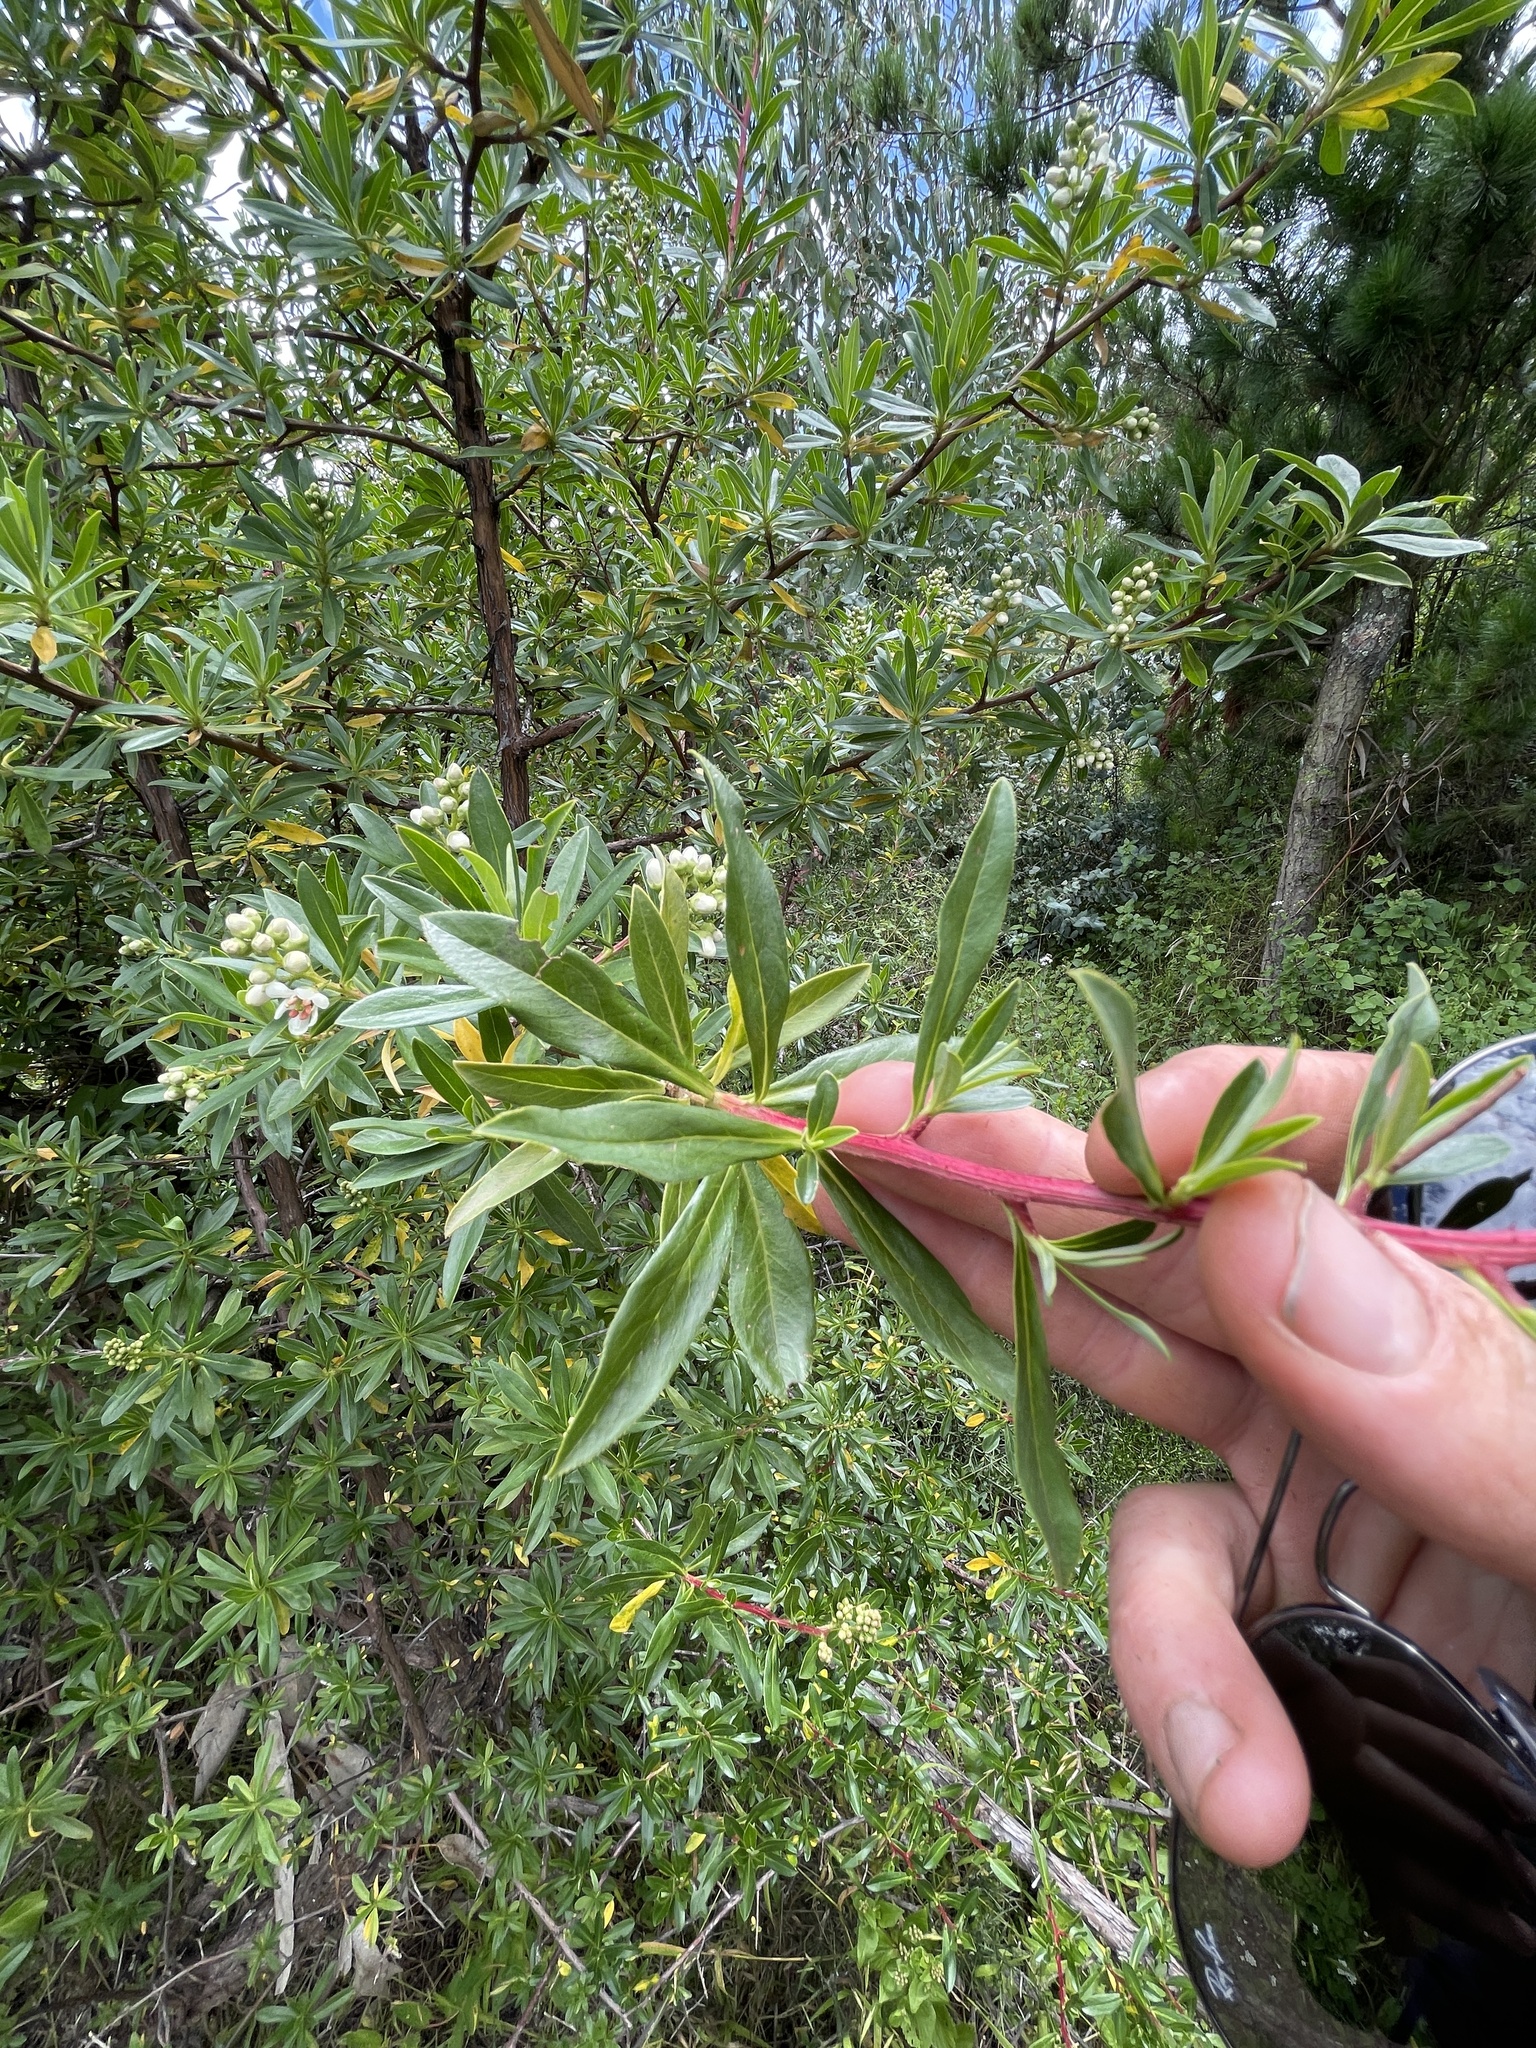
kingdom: Plantae
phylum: Tracheophyta
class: Magnoliopsida
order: Escalloniales
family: Escalloniaceae
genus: Escallonia
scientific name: Escallonia resinosa
